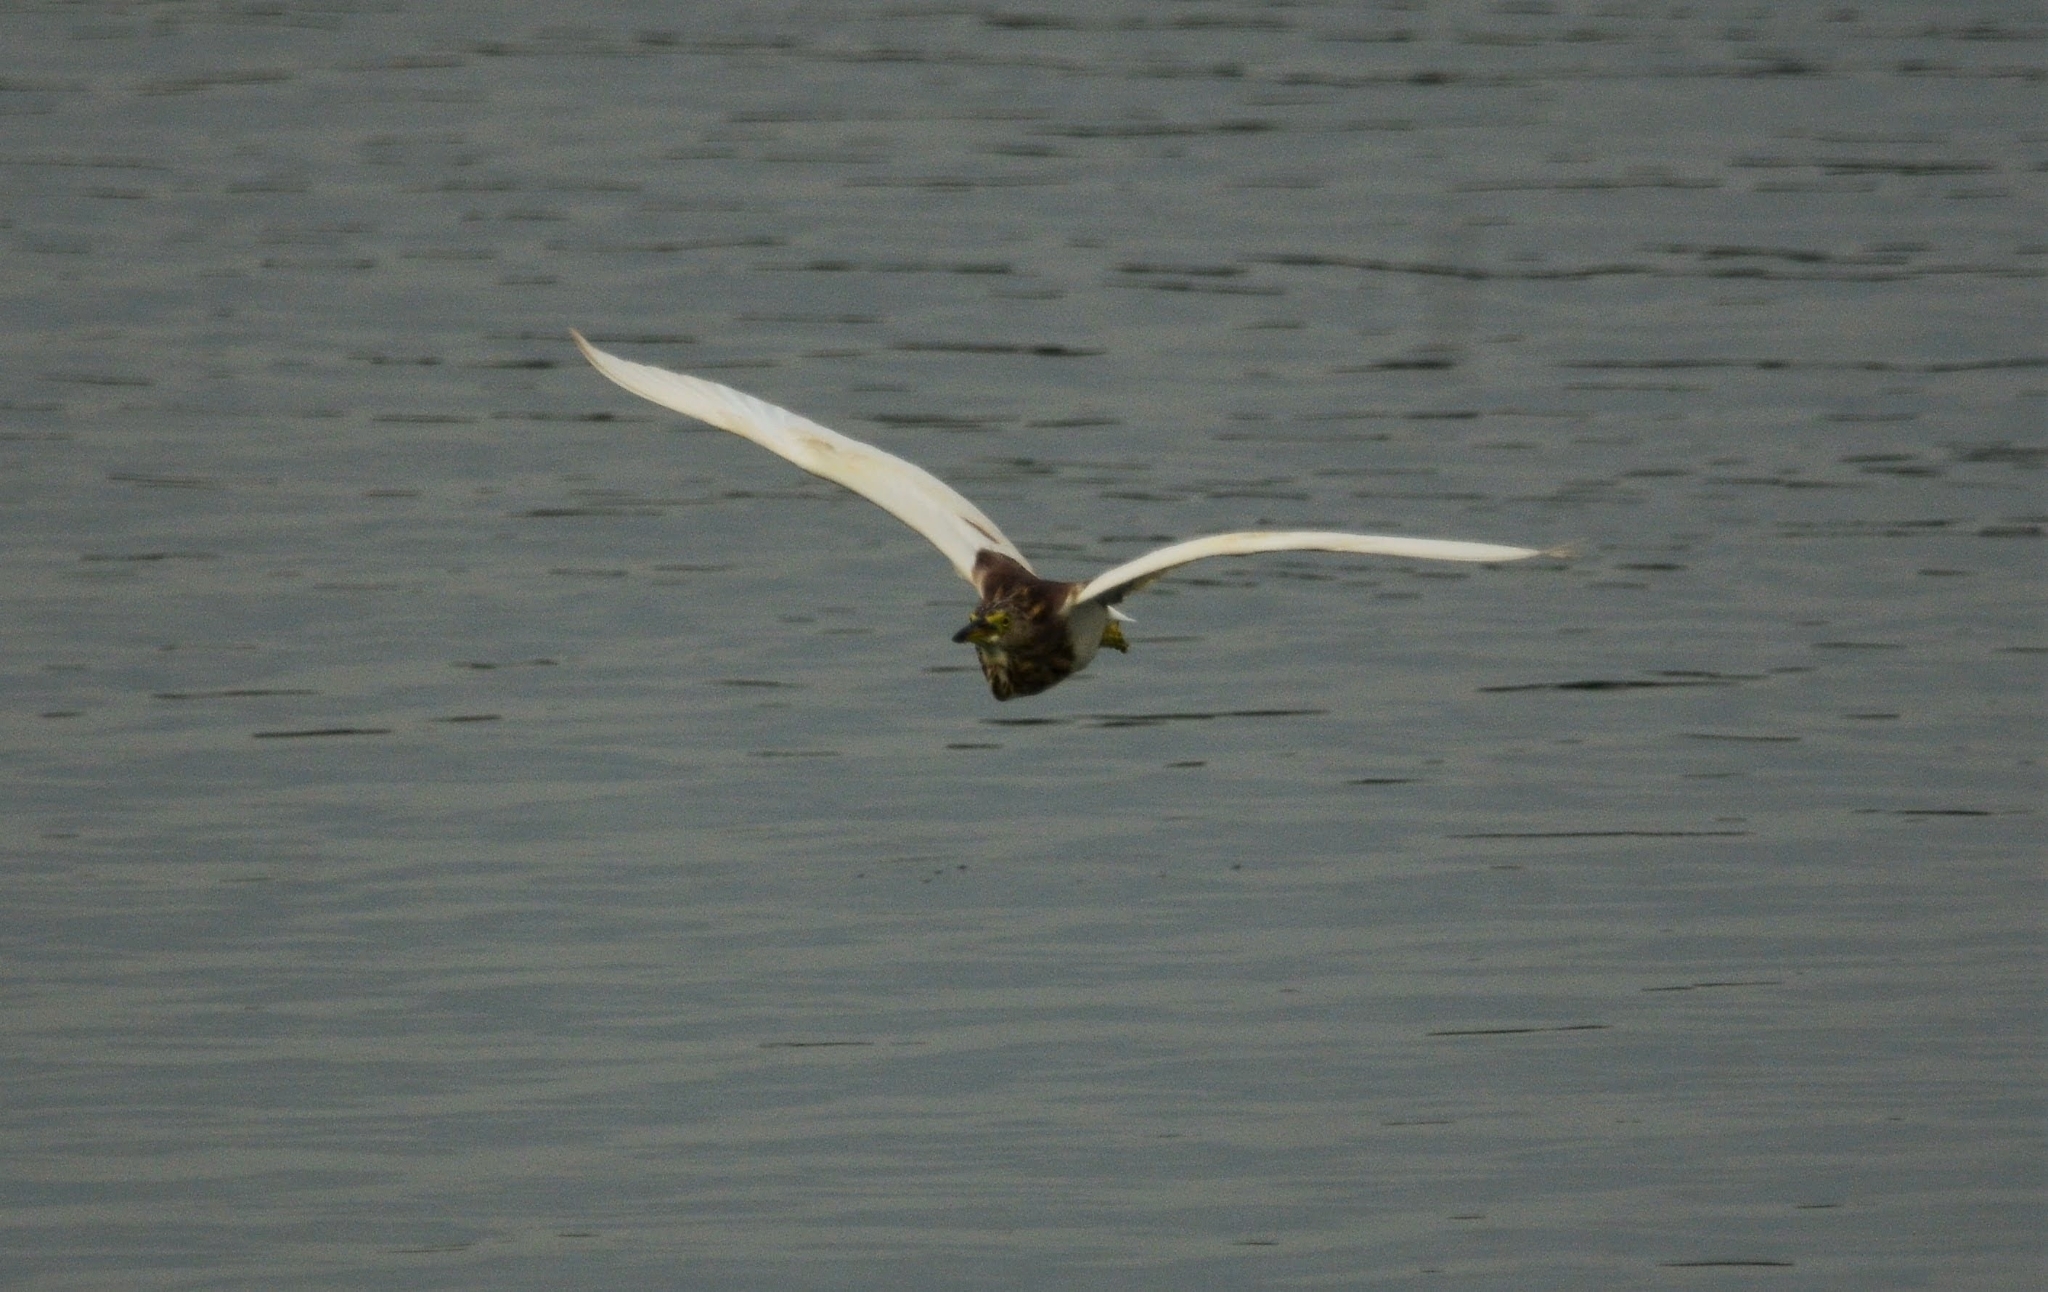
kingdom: Animalia
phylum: Chordata
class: Aves
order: Pelecaniformes
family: Ardeidae
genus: Ardeola
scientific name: Ardeola grayii
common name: Indian pond heron
